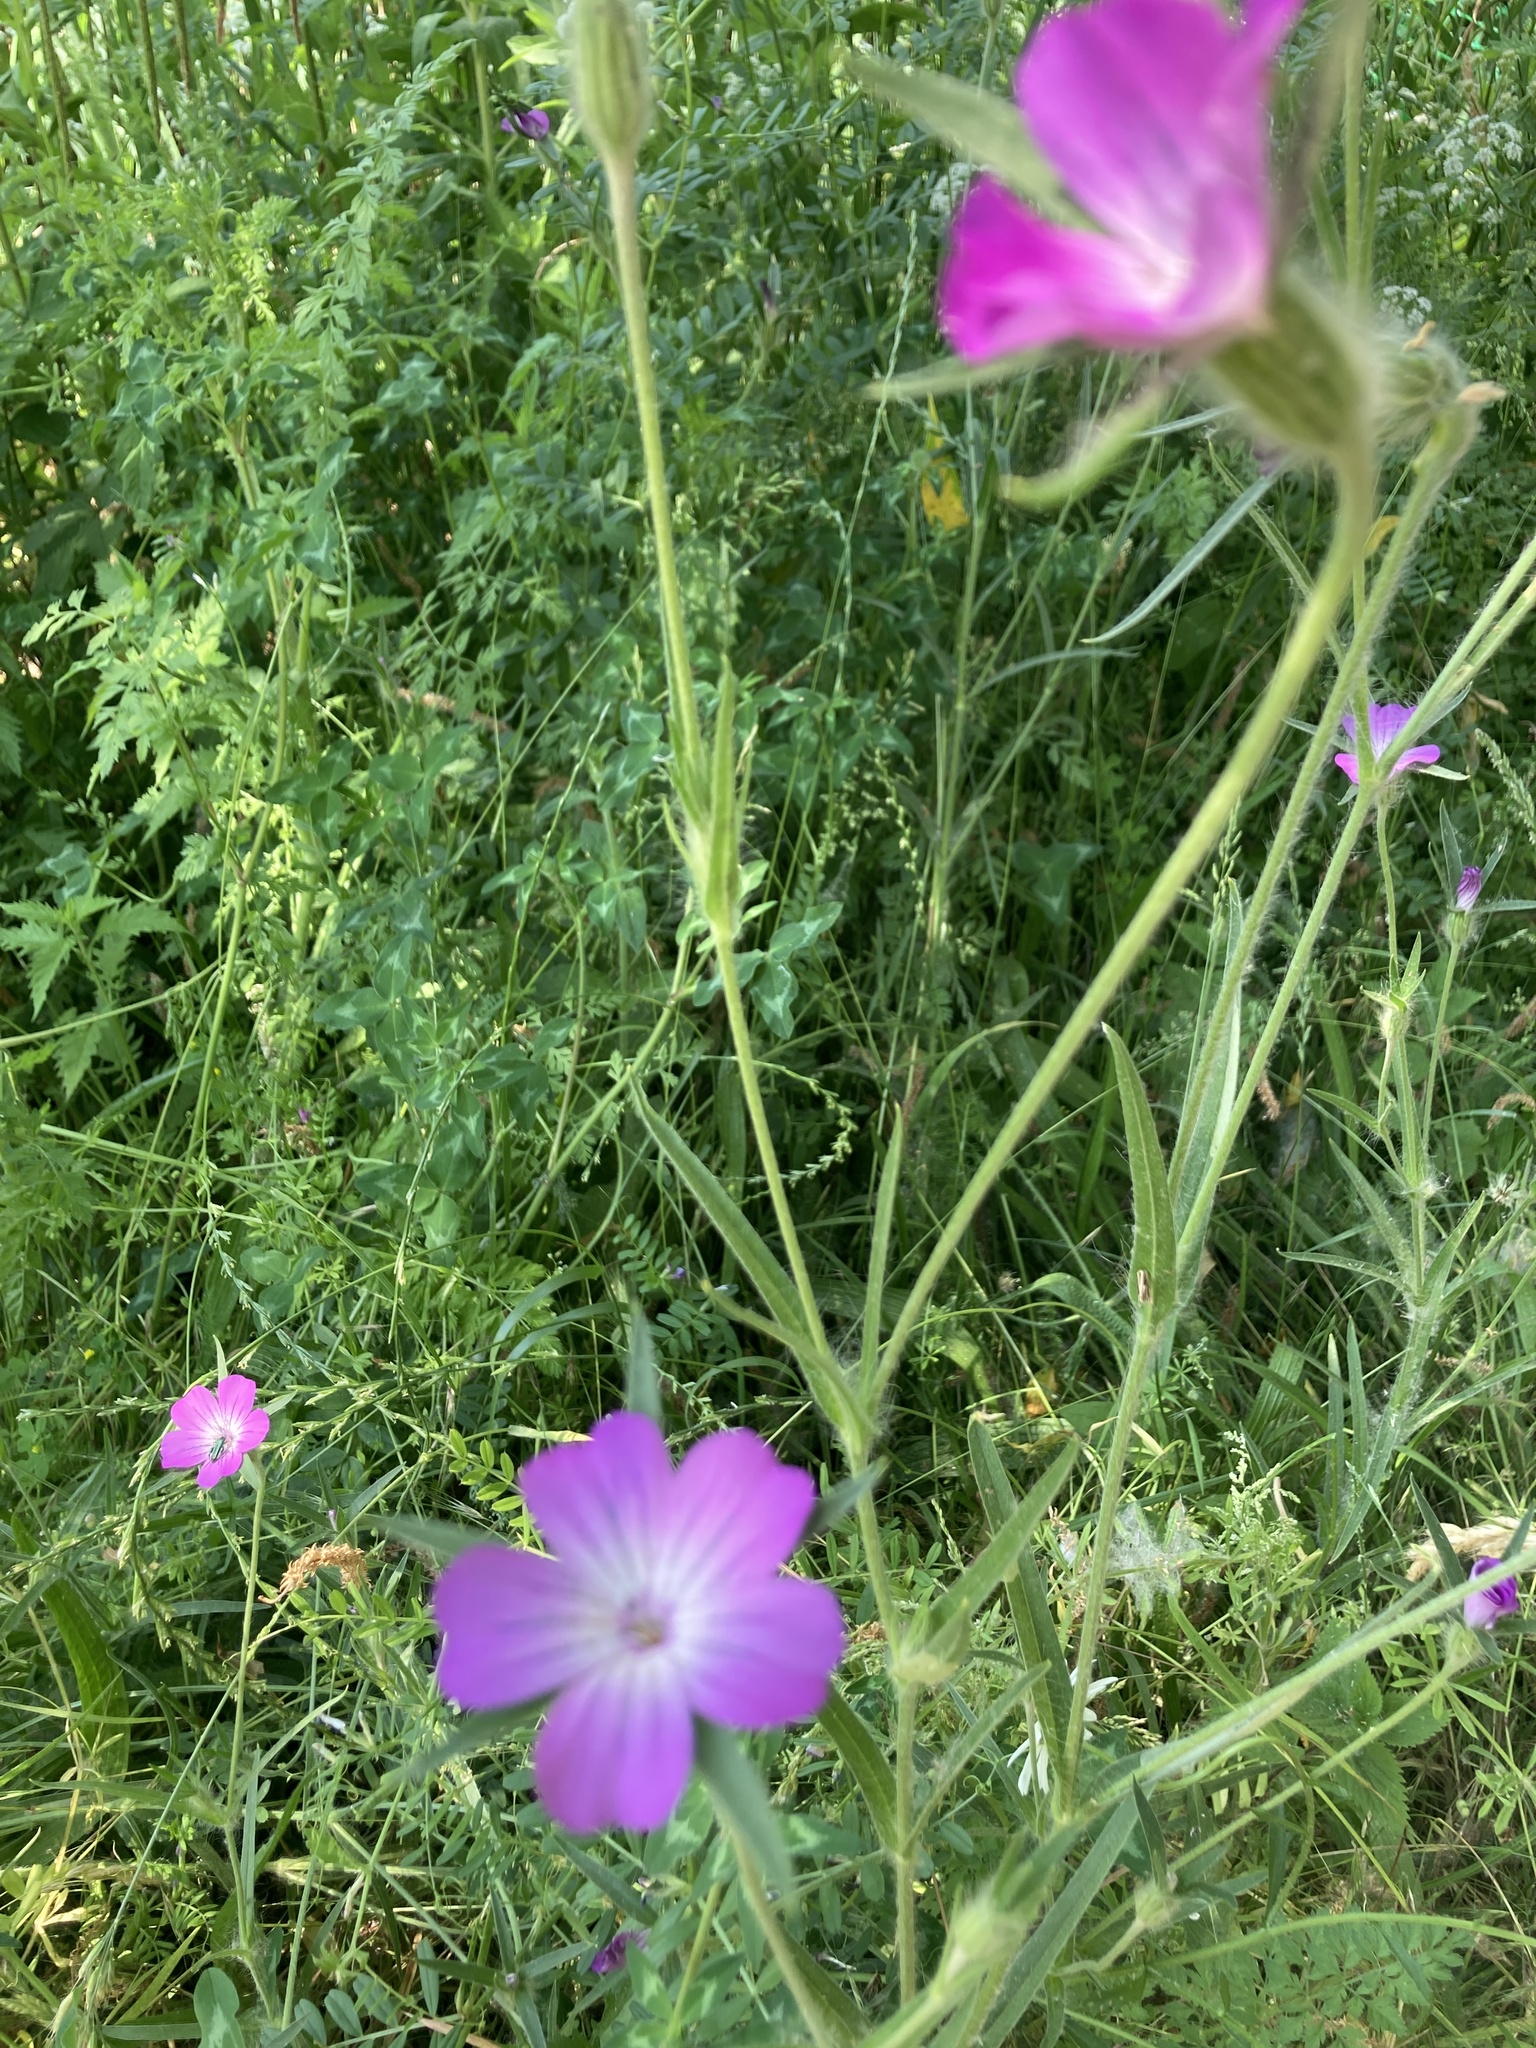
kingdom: Plantae
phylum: Tracheophyta
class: Magnoliopsida
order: Caryophyllales
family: Caryophyllaceae
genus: Agrostemma
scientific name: Agrostemma githago
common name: Common corncockle
